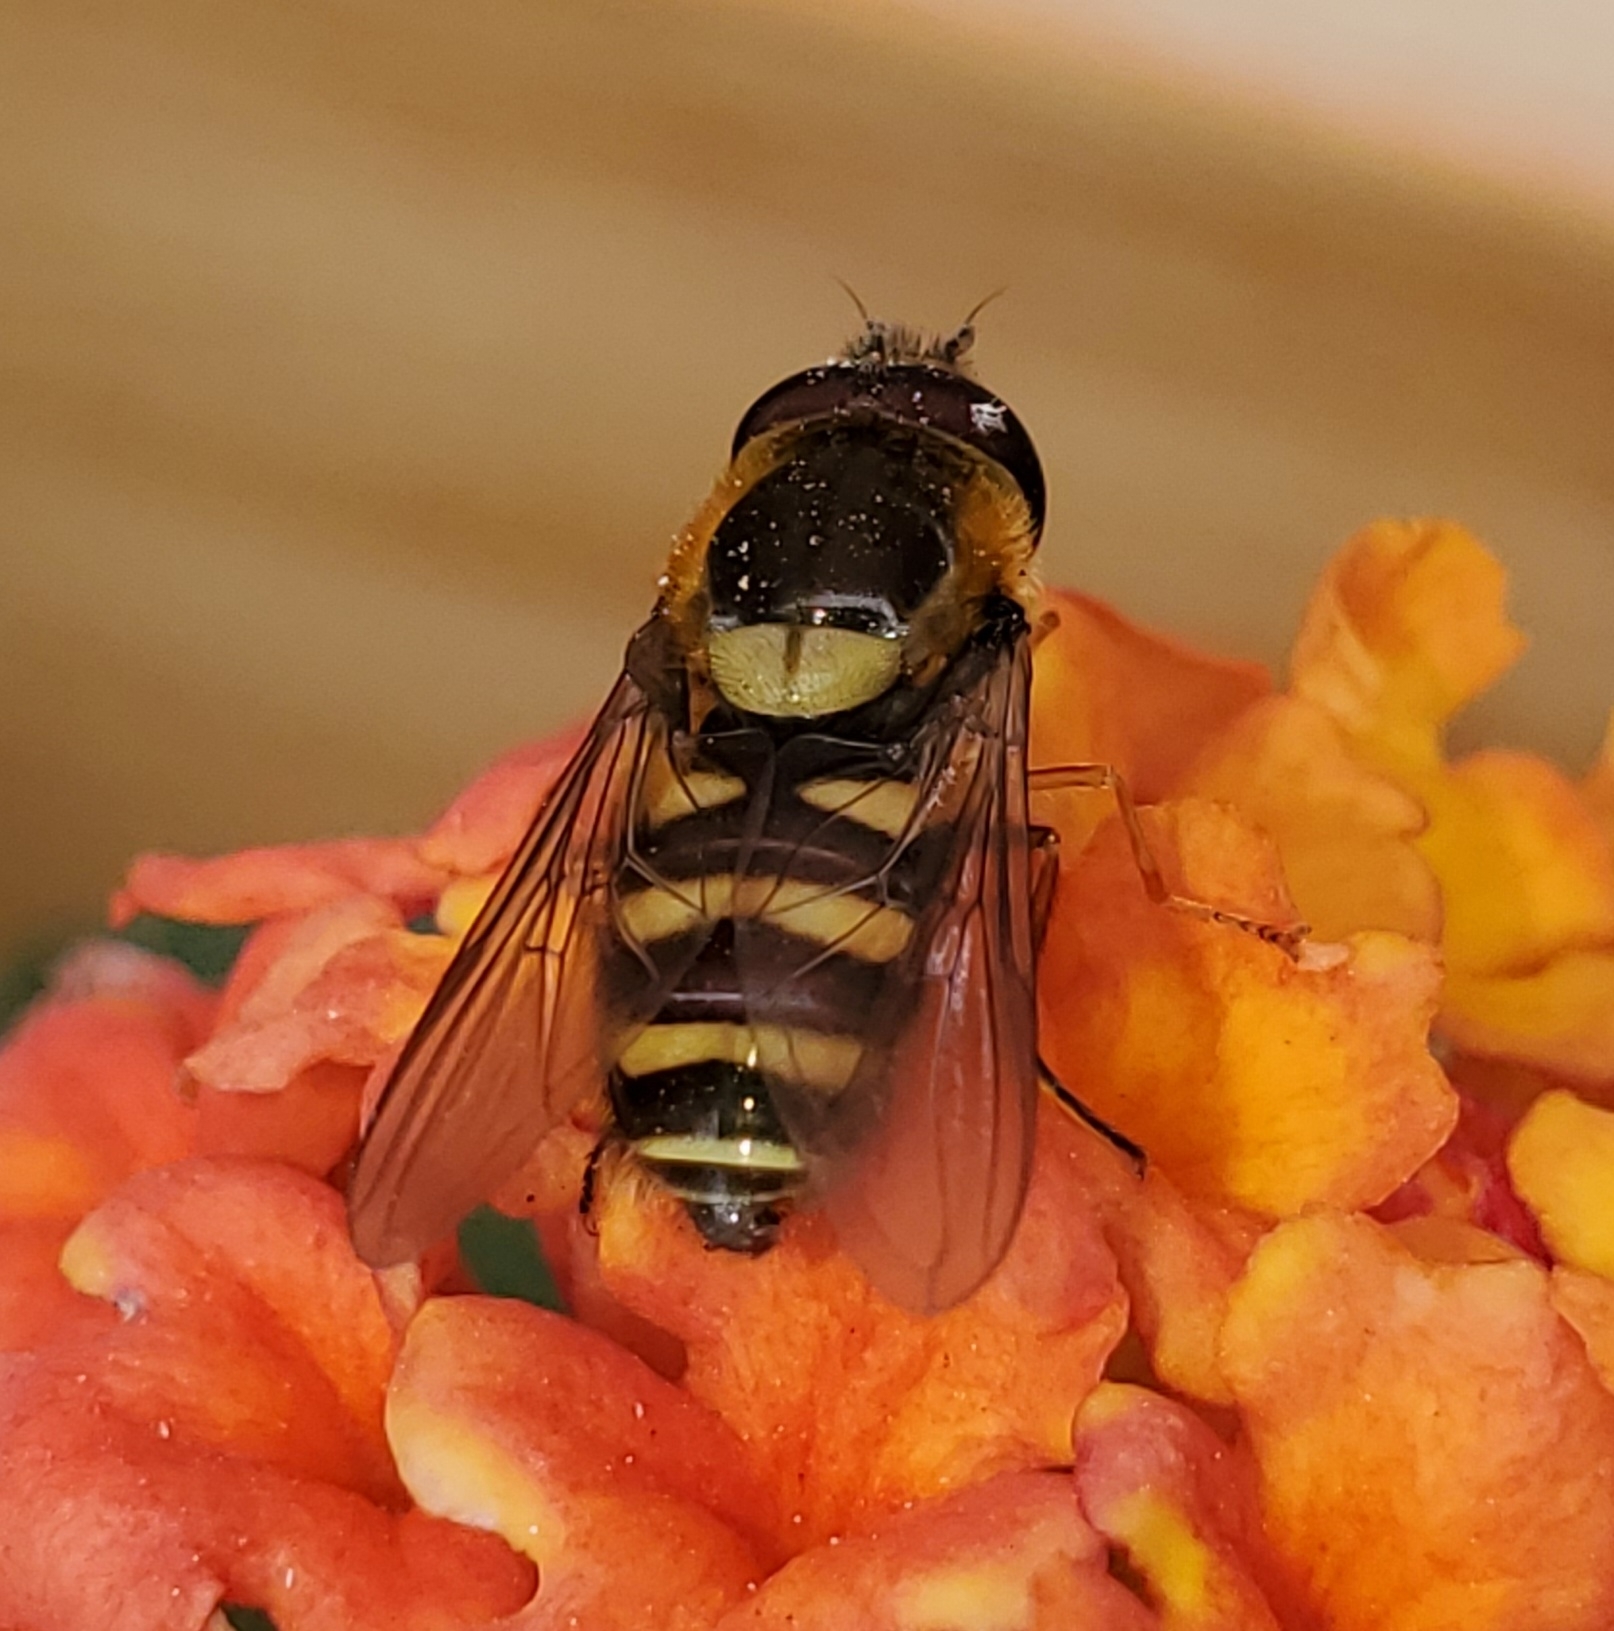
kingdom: Animalia
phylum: Arthropoda
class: Insecta
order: Diptera
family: Syrphidae
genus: Syrphus
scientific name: Syrphus opinator
